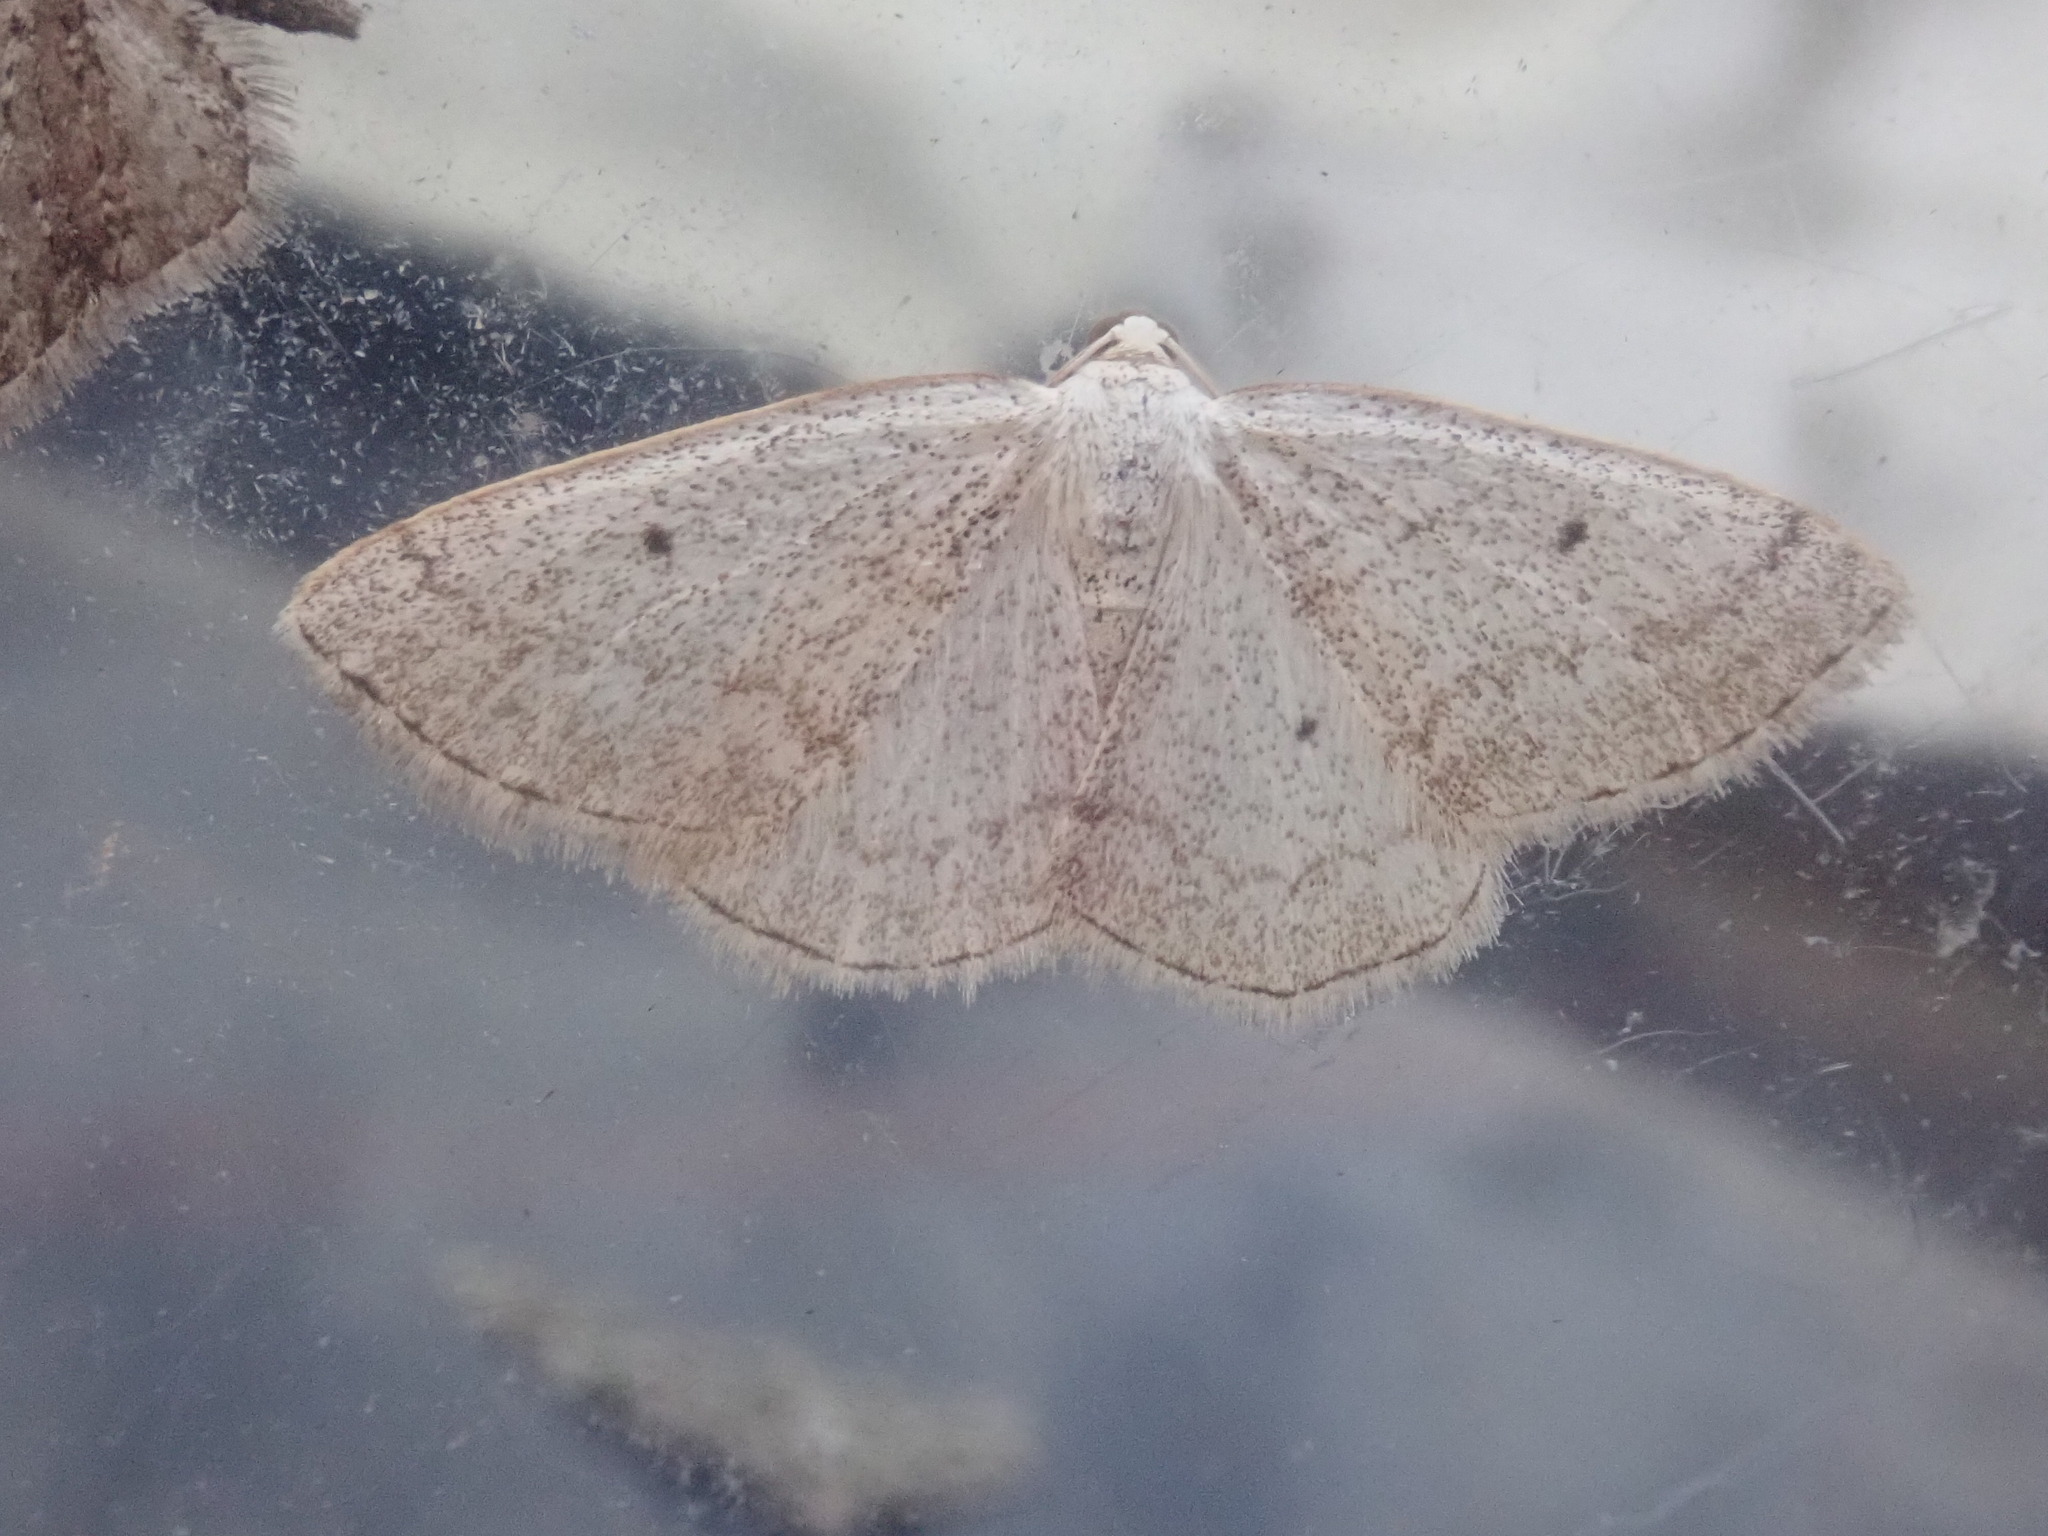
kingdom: Animalia
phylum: Arthropoda
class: Insecta
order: Lepidoptera
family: Geometridae
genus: Lomographa
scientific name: Lomographa glomeraria
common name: Gray spring moth
